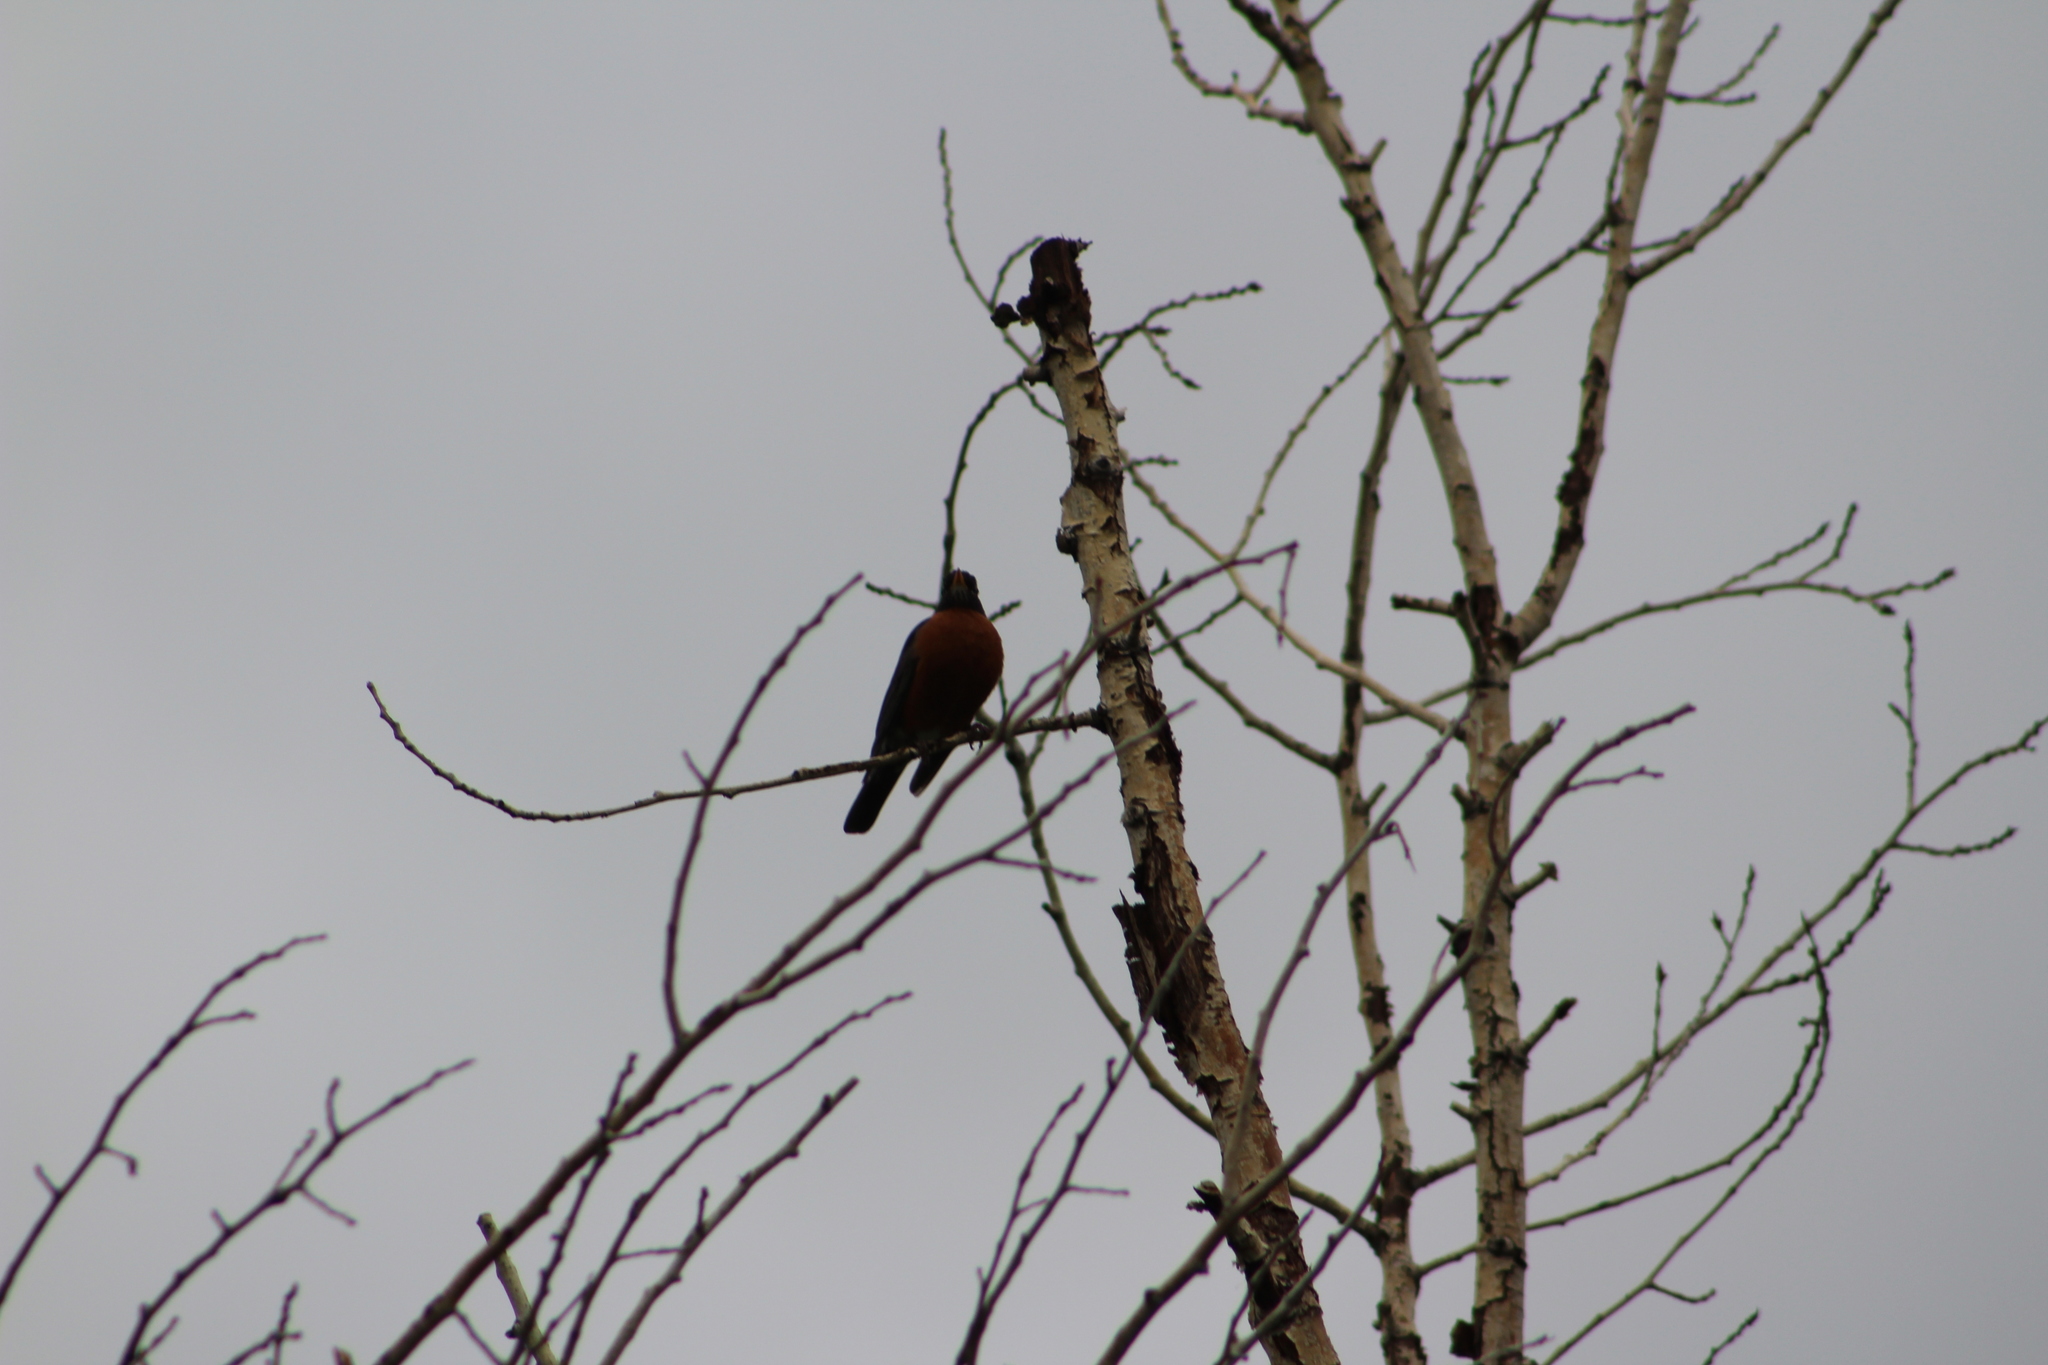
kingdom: Animalia
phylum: Chordata
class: Aves
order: Passeriformes
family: Turdidae
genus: Turdus
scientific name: Turdus migratorius
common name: American robin
